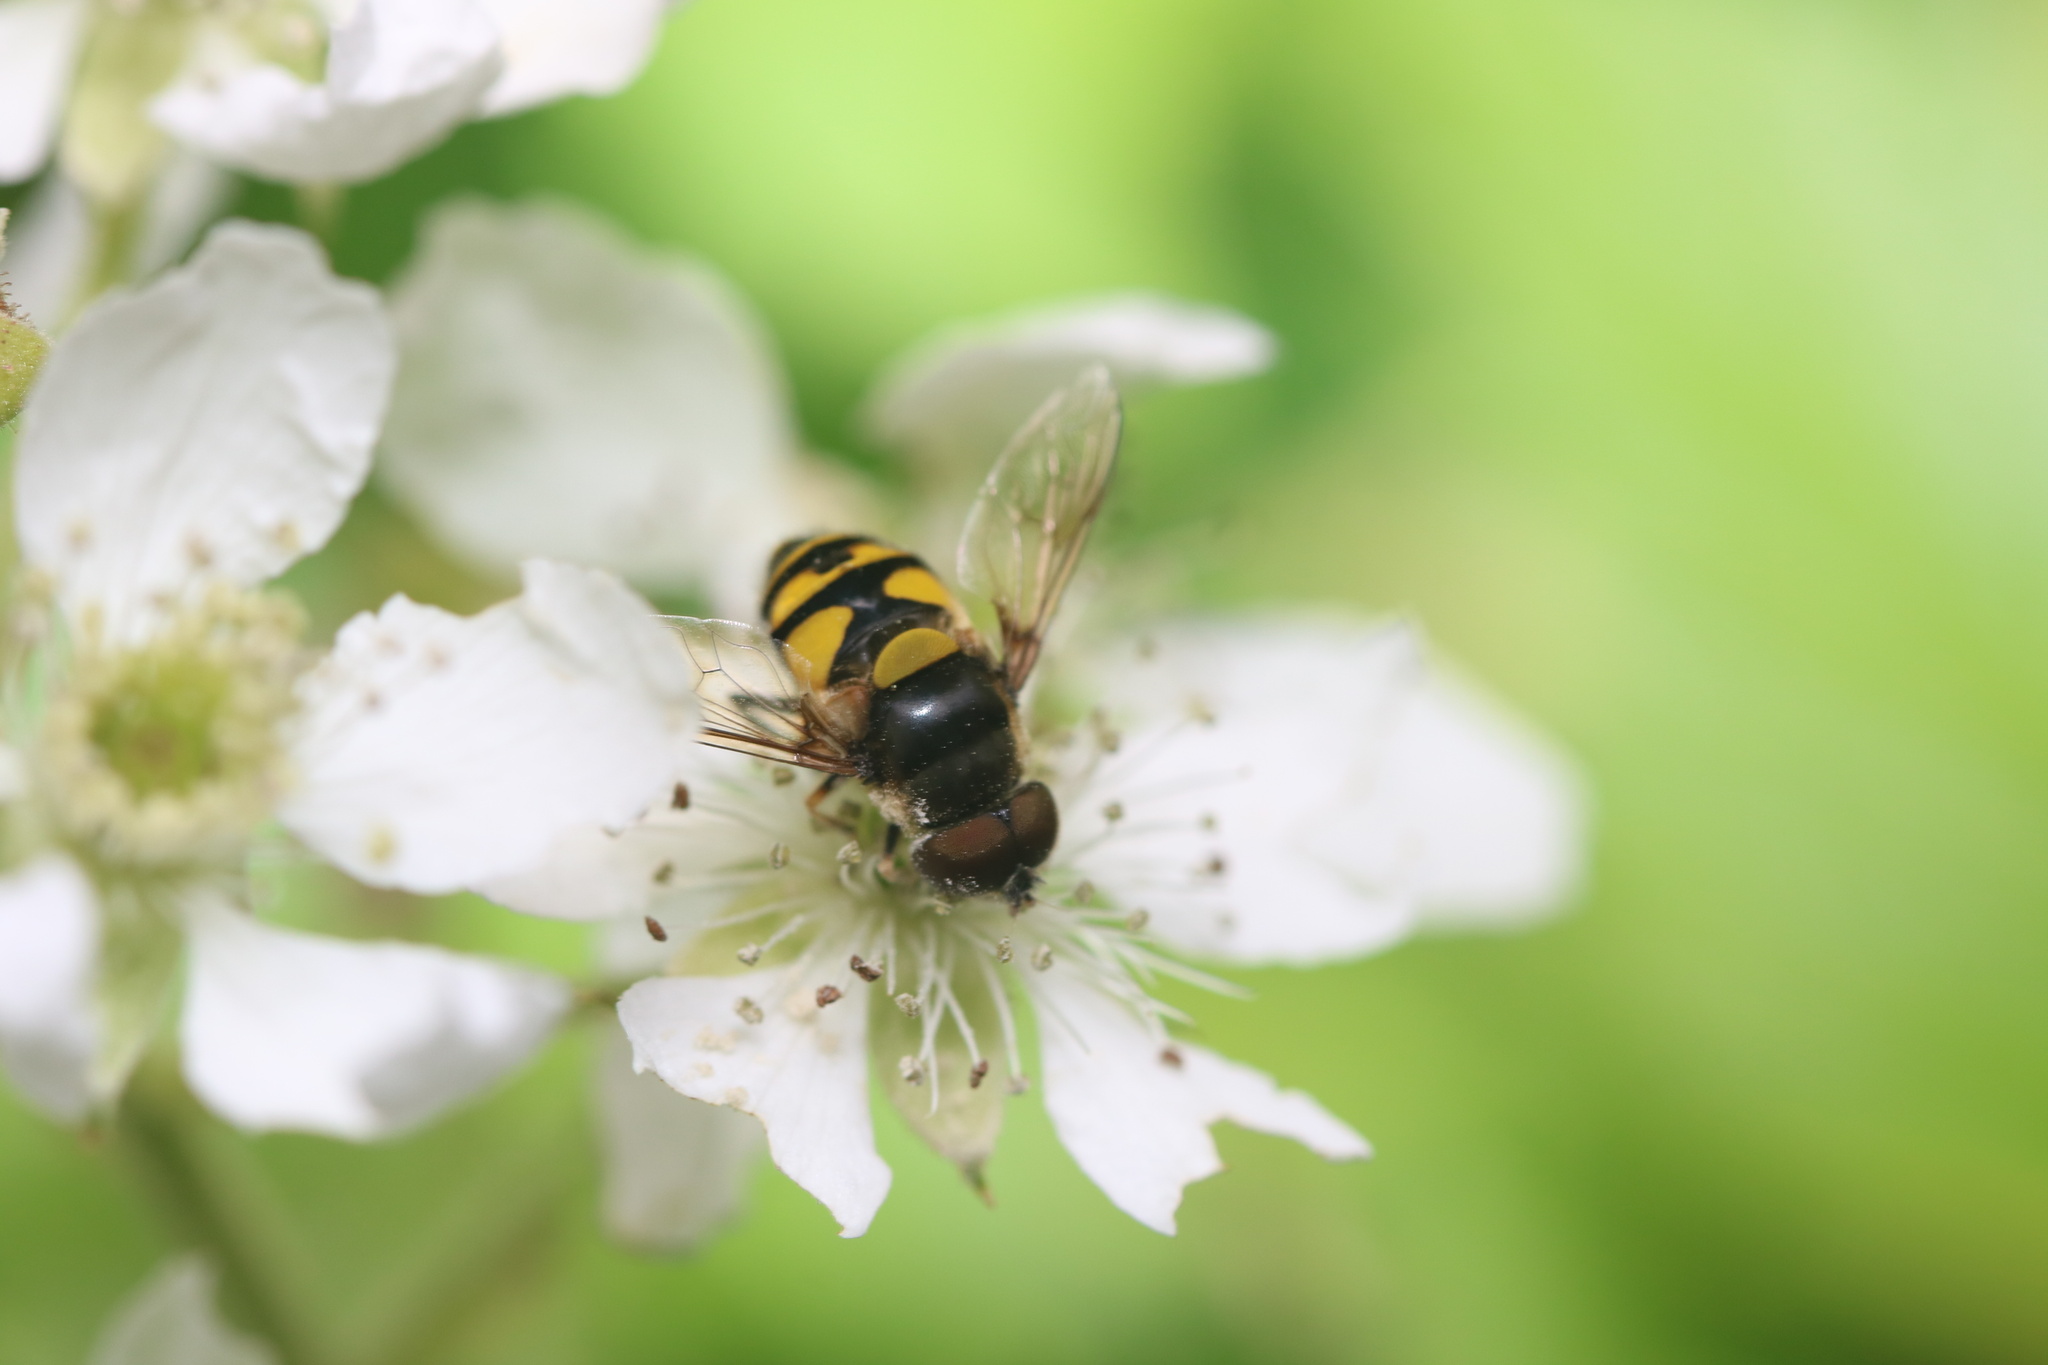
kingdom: Animalia
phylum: Arthropoda
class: Insecta
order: Diptera
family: Syrphidae
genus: Eristalis
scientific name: Eristalis transversa
